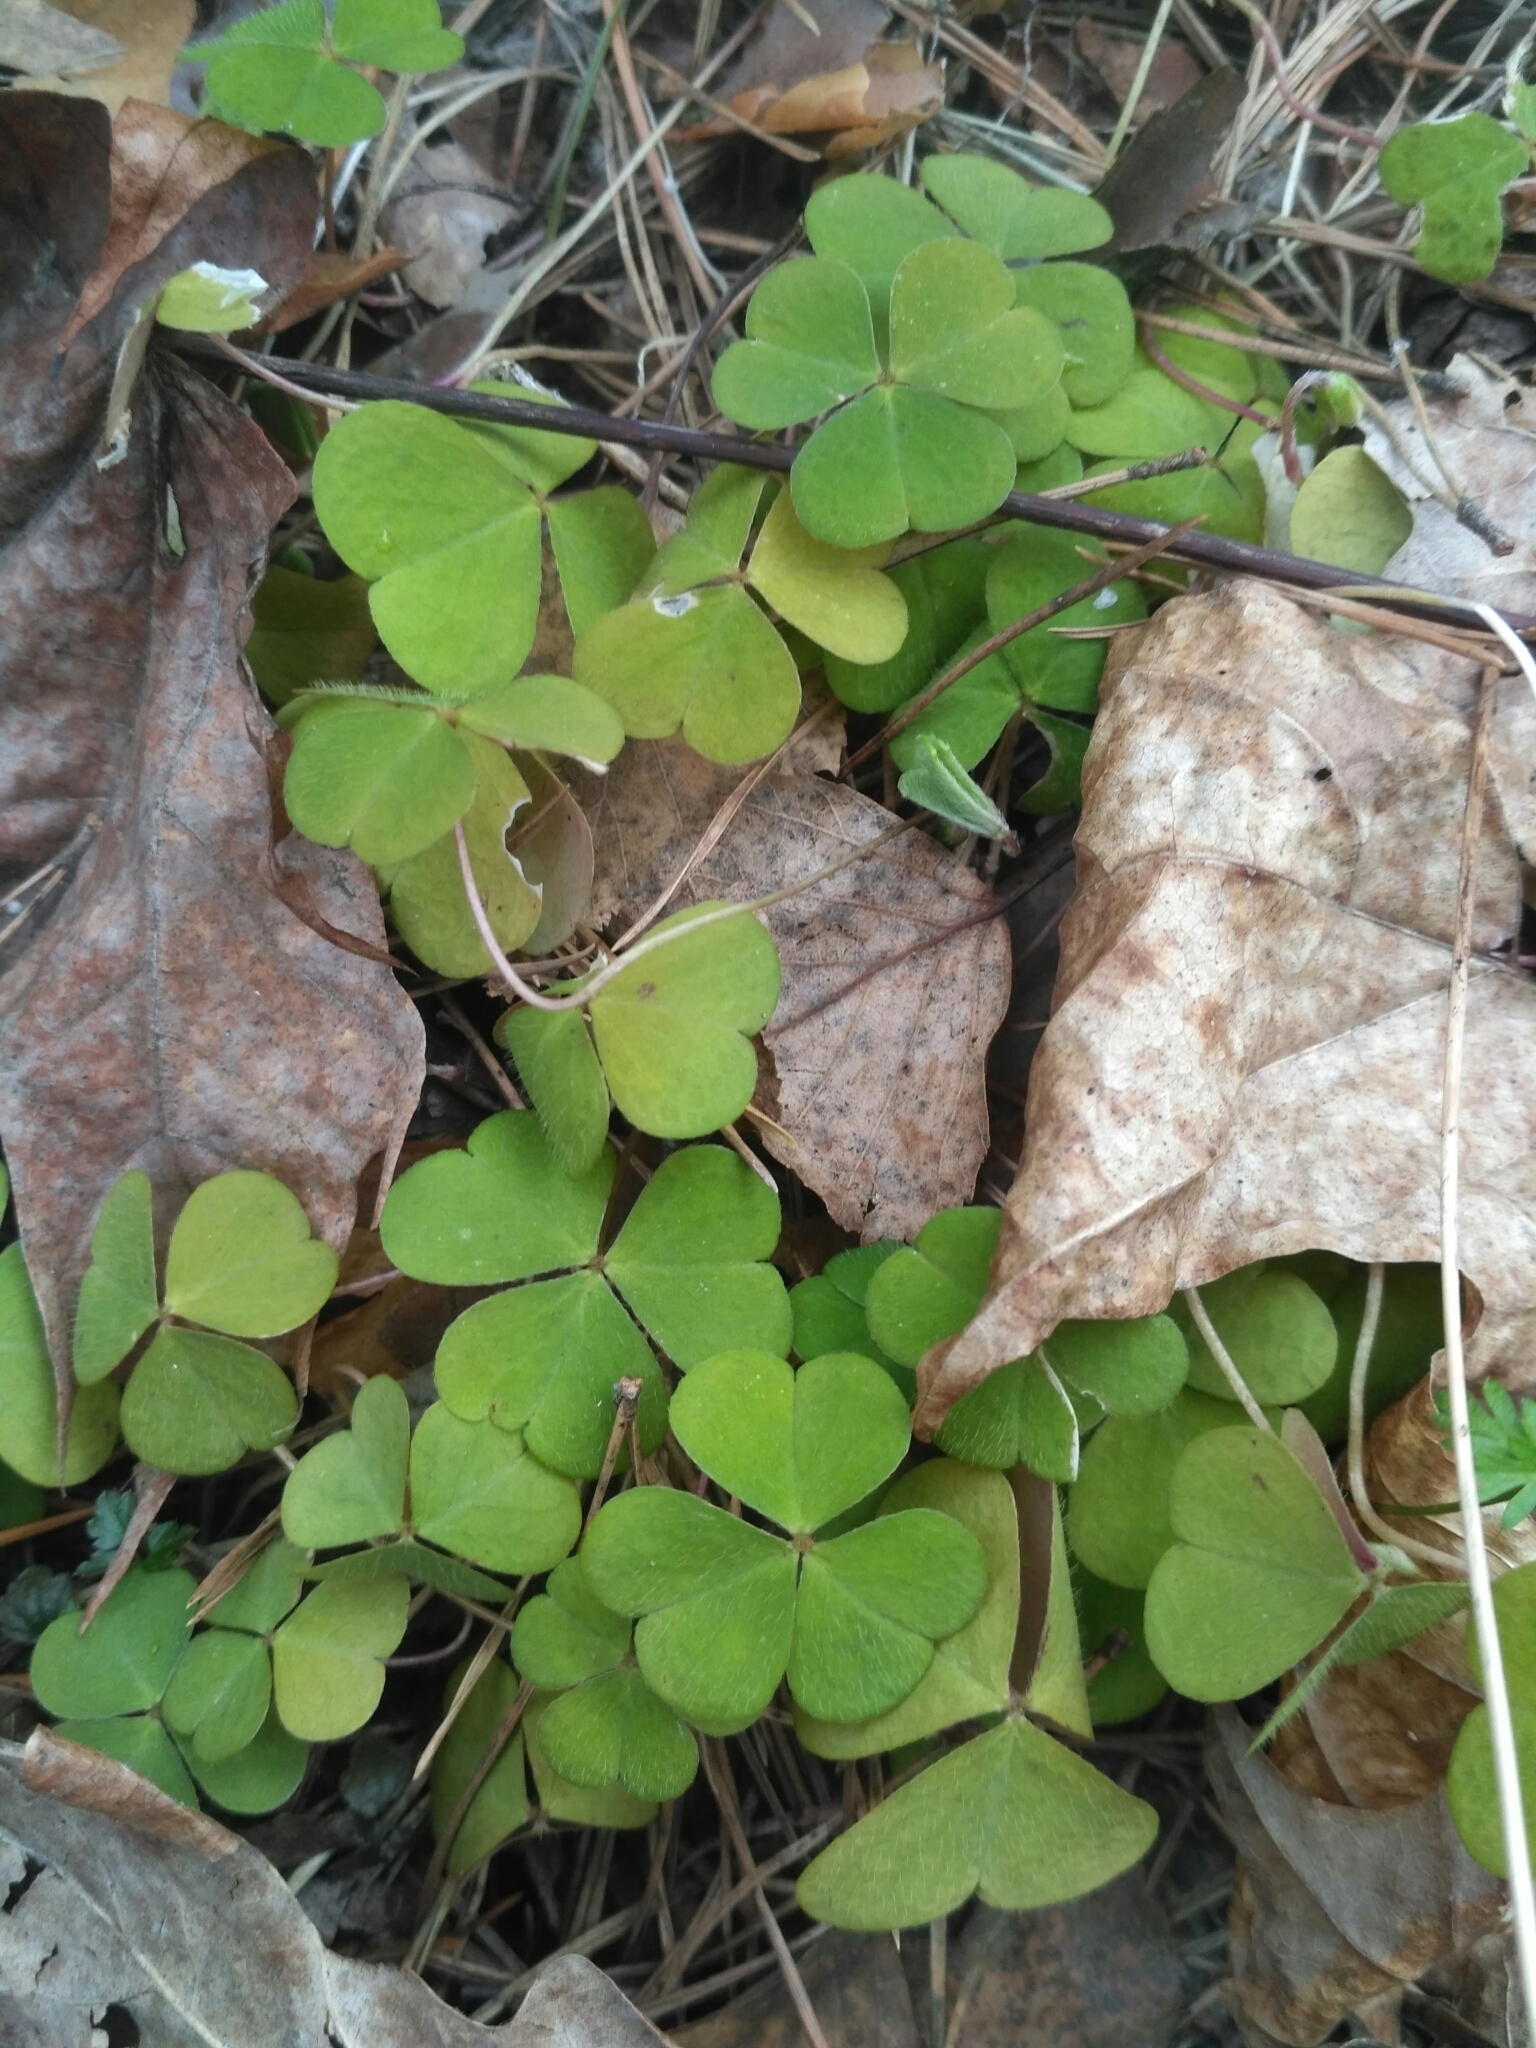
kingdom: Plantae
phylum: Tracheophyta
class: Magnoliopsida
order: Oxalidales
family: Oxalidaceae
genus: Oxalis
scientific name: Oxalis acetosella
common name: Wood-sorrel
